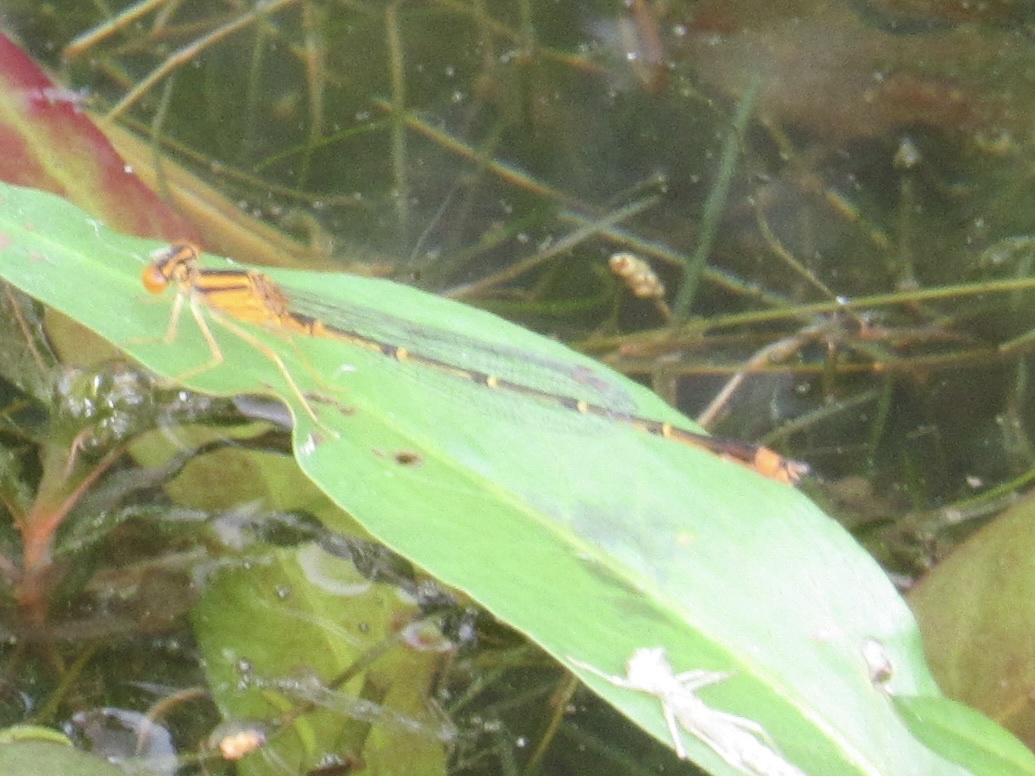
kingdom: Animalia
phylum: Arthropoda
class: Insecta
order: Odonata
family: Coenagrionidae
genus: Enallagma
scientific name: Enallagma signatum
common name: Orange bluet
